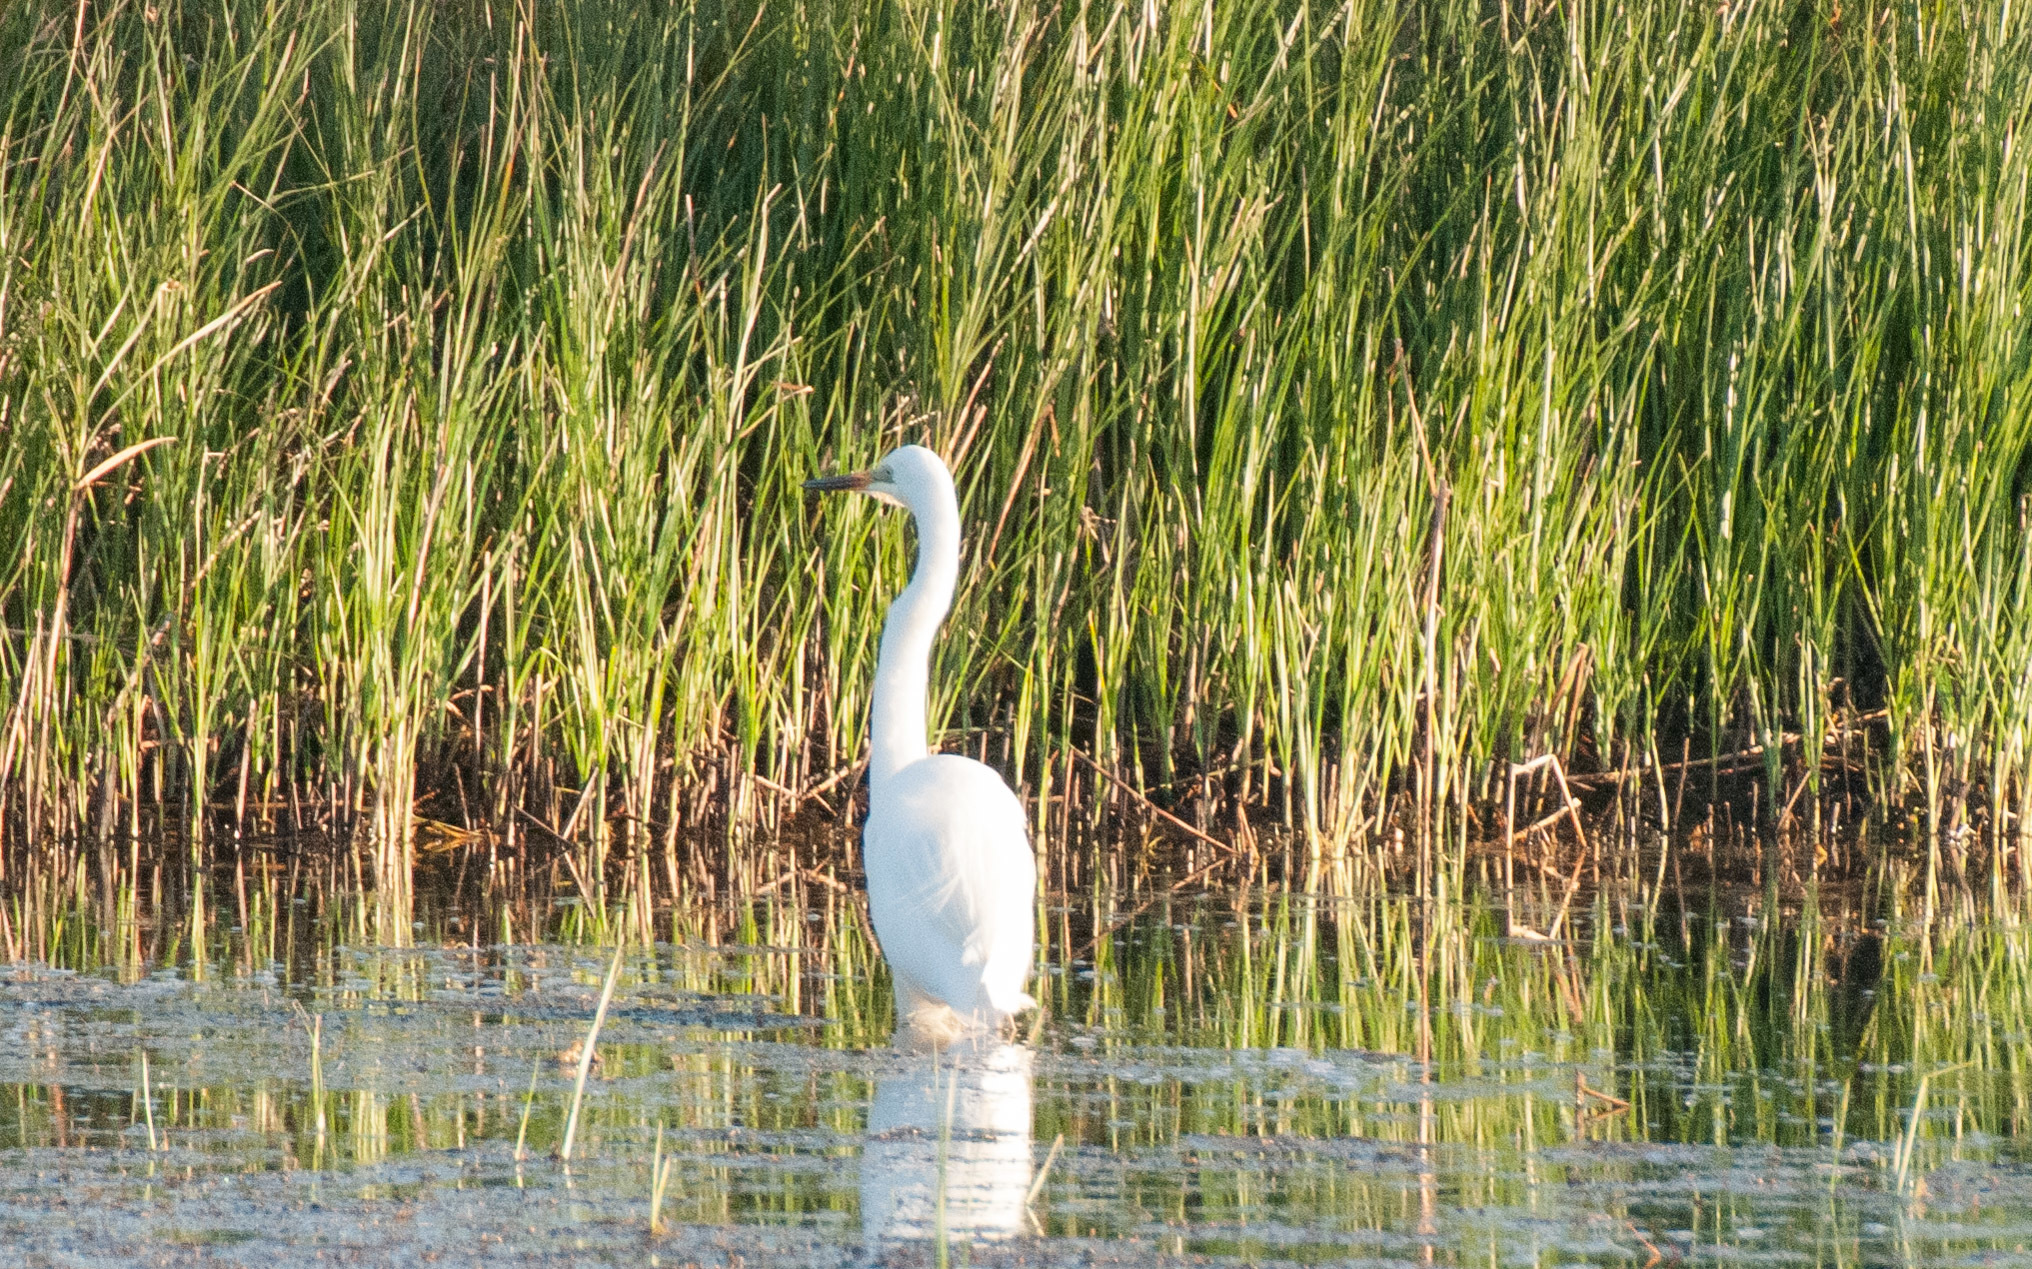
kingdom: Animalia
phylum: Chordata
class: Aves
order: Pelecaniformes
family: Ardeidae
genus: Ardea
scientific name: Ardea alba
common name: Great egret
